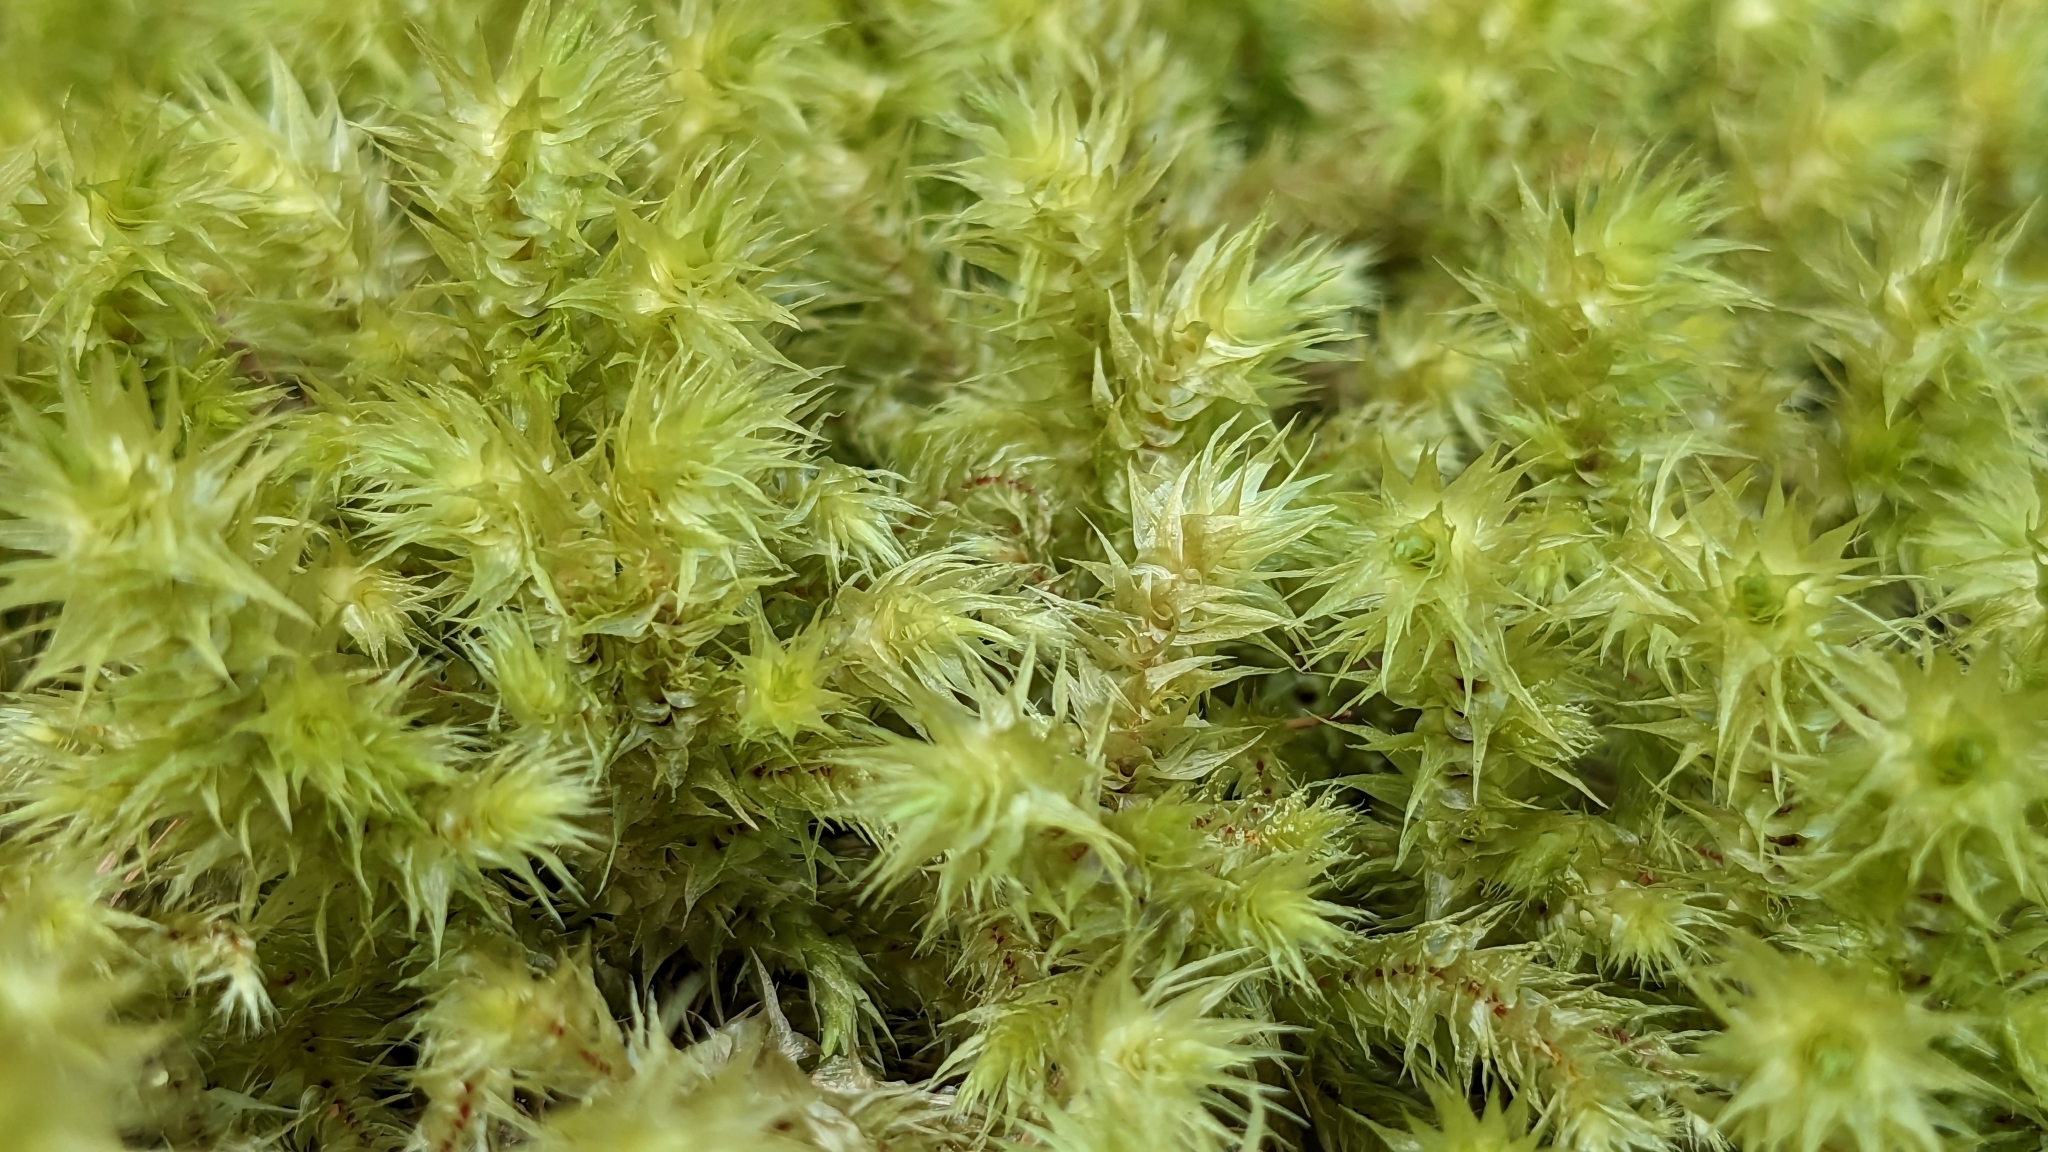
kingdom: Plantae
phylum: Bryophyta
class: Bryopsida
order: Hypnales
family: Hylocomiaceae
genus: Hylocomiadelphus
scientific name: Hylocomiadelphus triquetrus
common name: Rough goose neck moss
